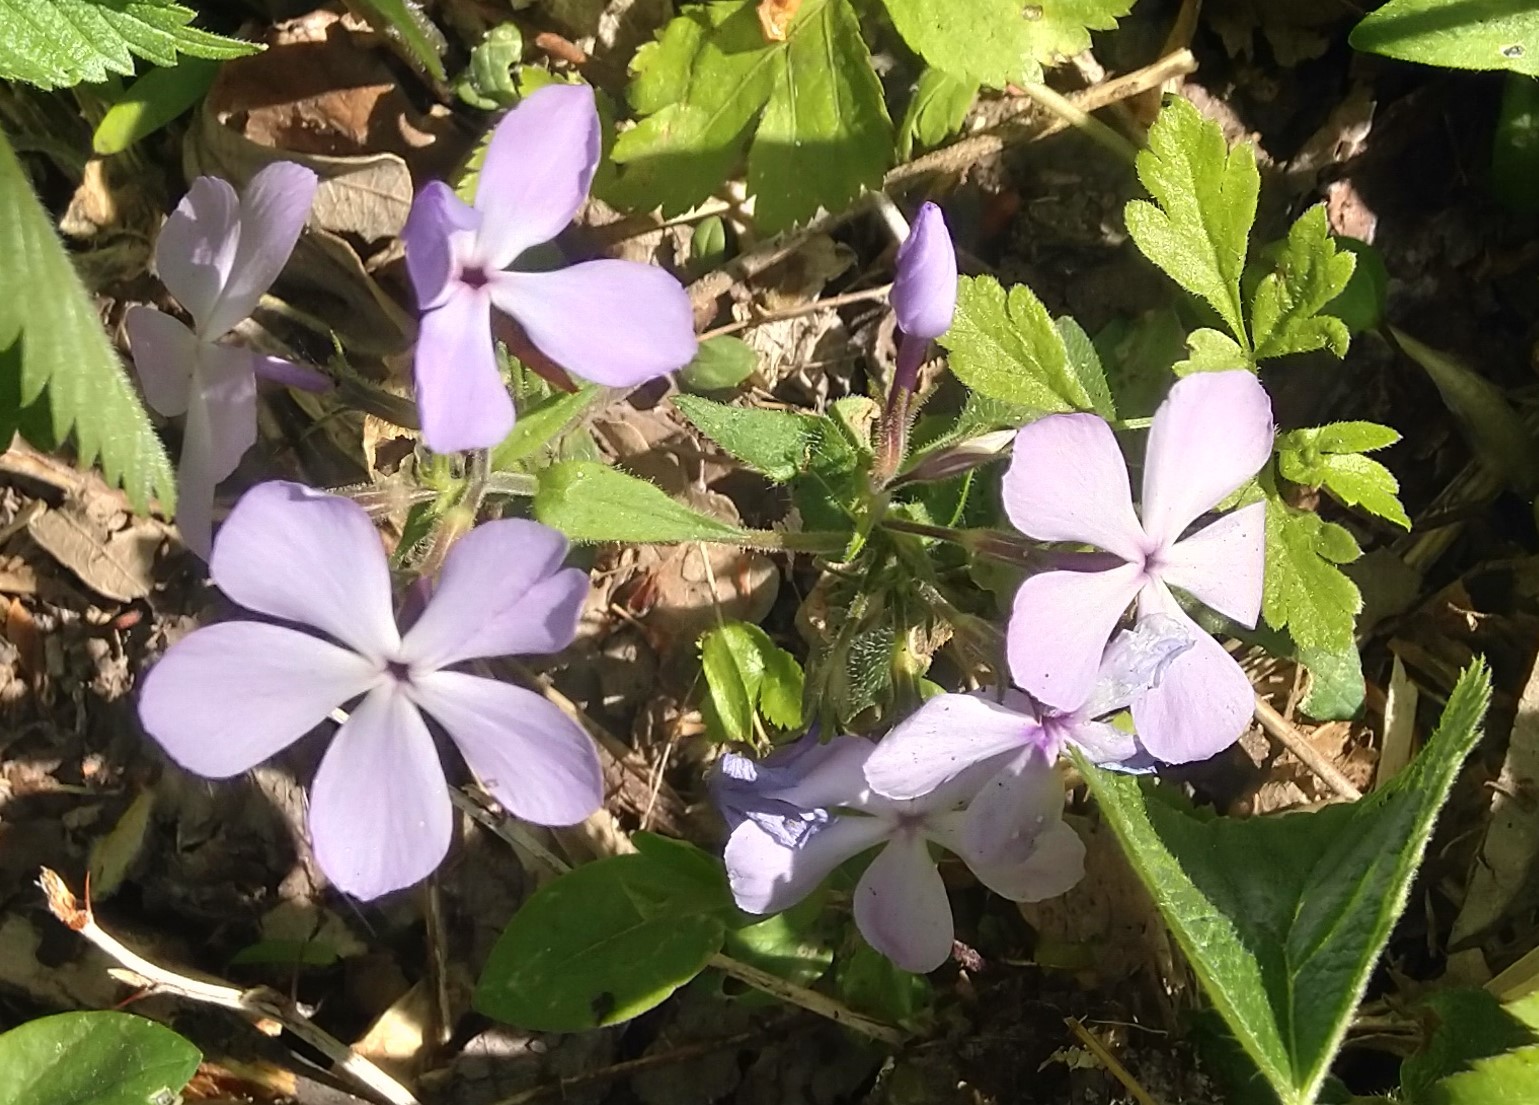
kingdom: Plantae
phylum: Tracheophyta
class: Magnoliopsida
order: Ericales
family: Polemoniaceae
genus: Phlox
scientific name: Phlox divaricata
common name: Blue phlox
